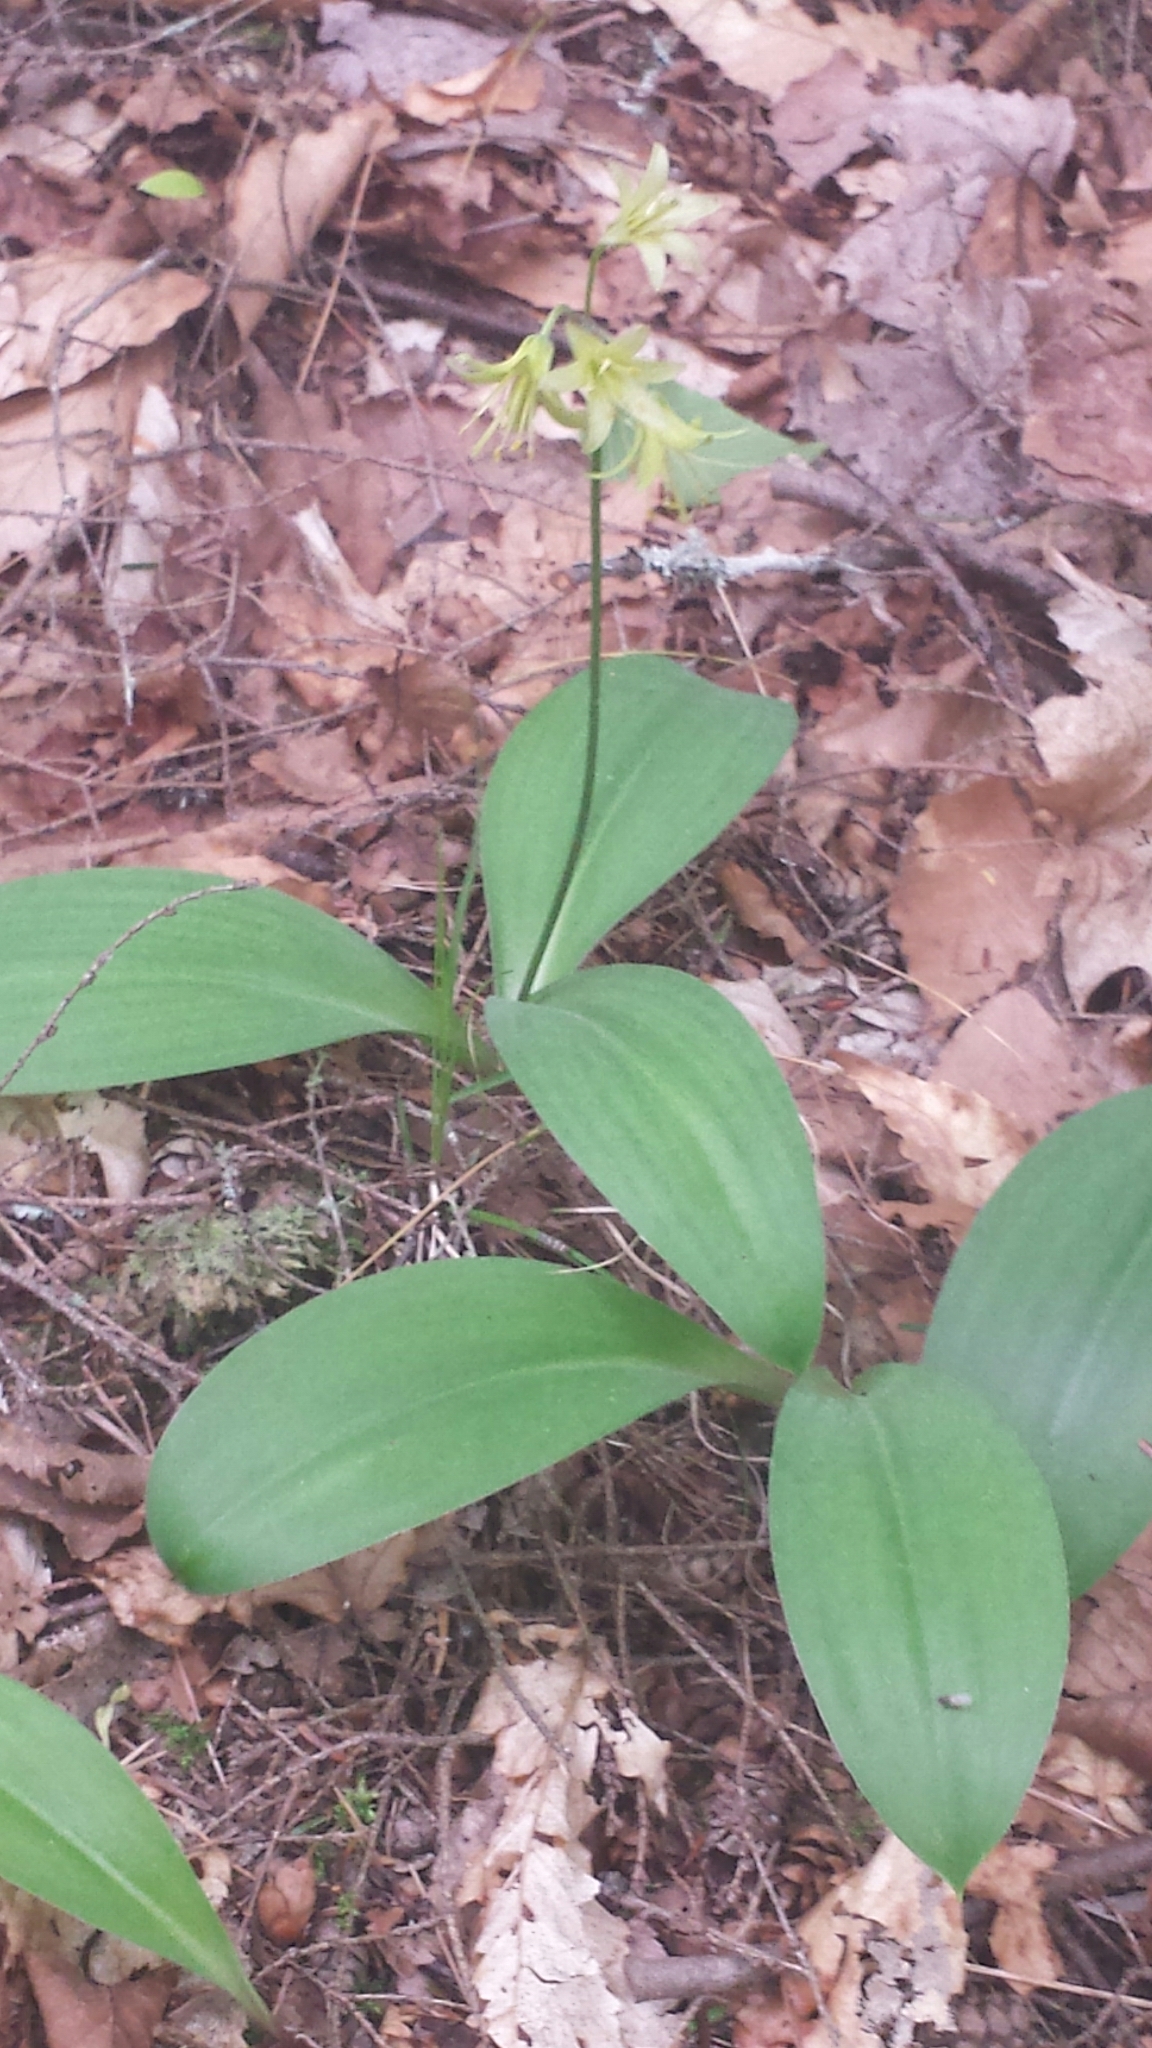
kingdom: Plantae
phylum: Tracheophyta
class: Liliopsida
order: Liliales
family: Liliaceae
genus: Clintonia
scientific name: Clintonia borealis
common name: Yellow clintonia
